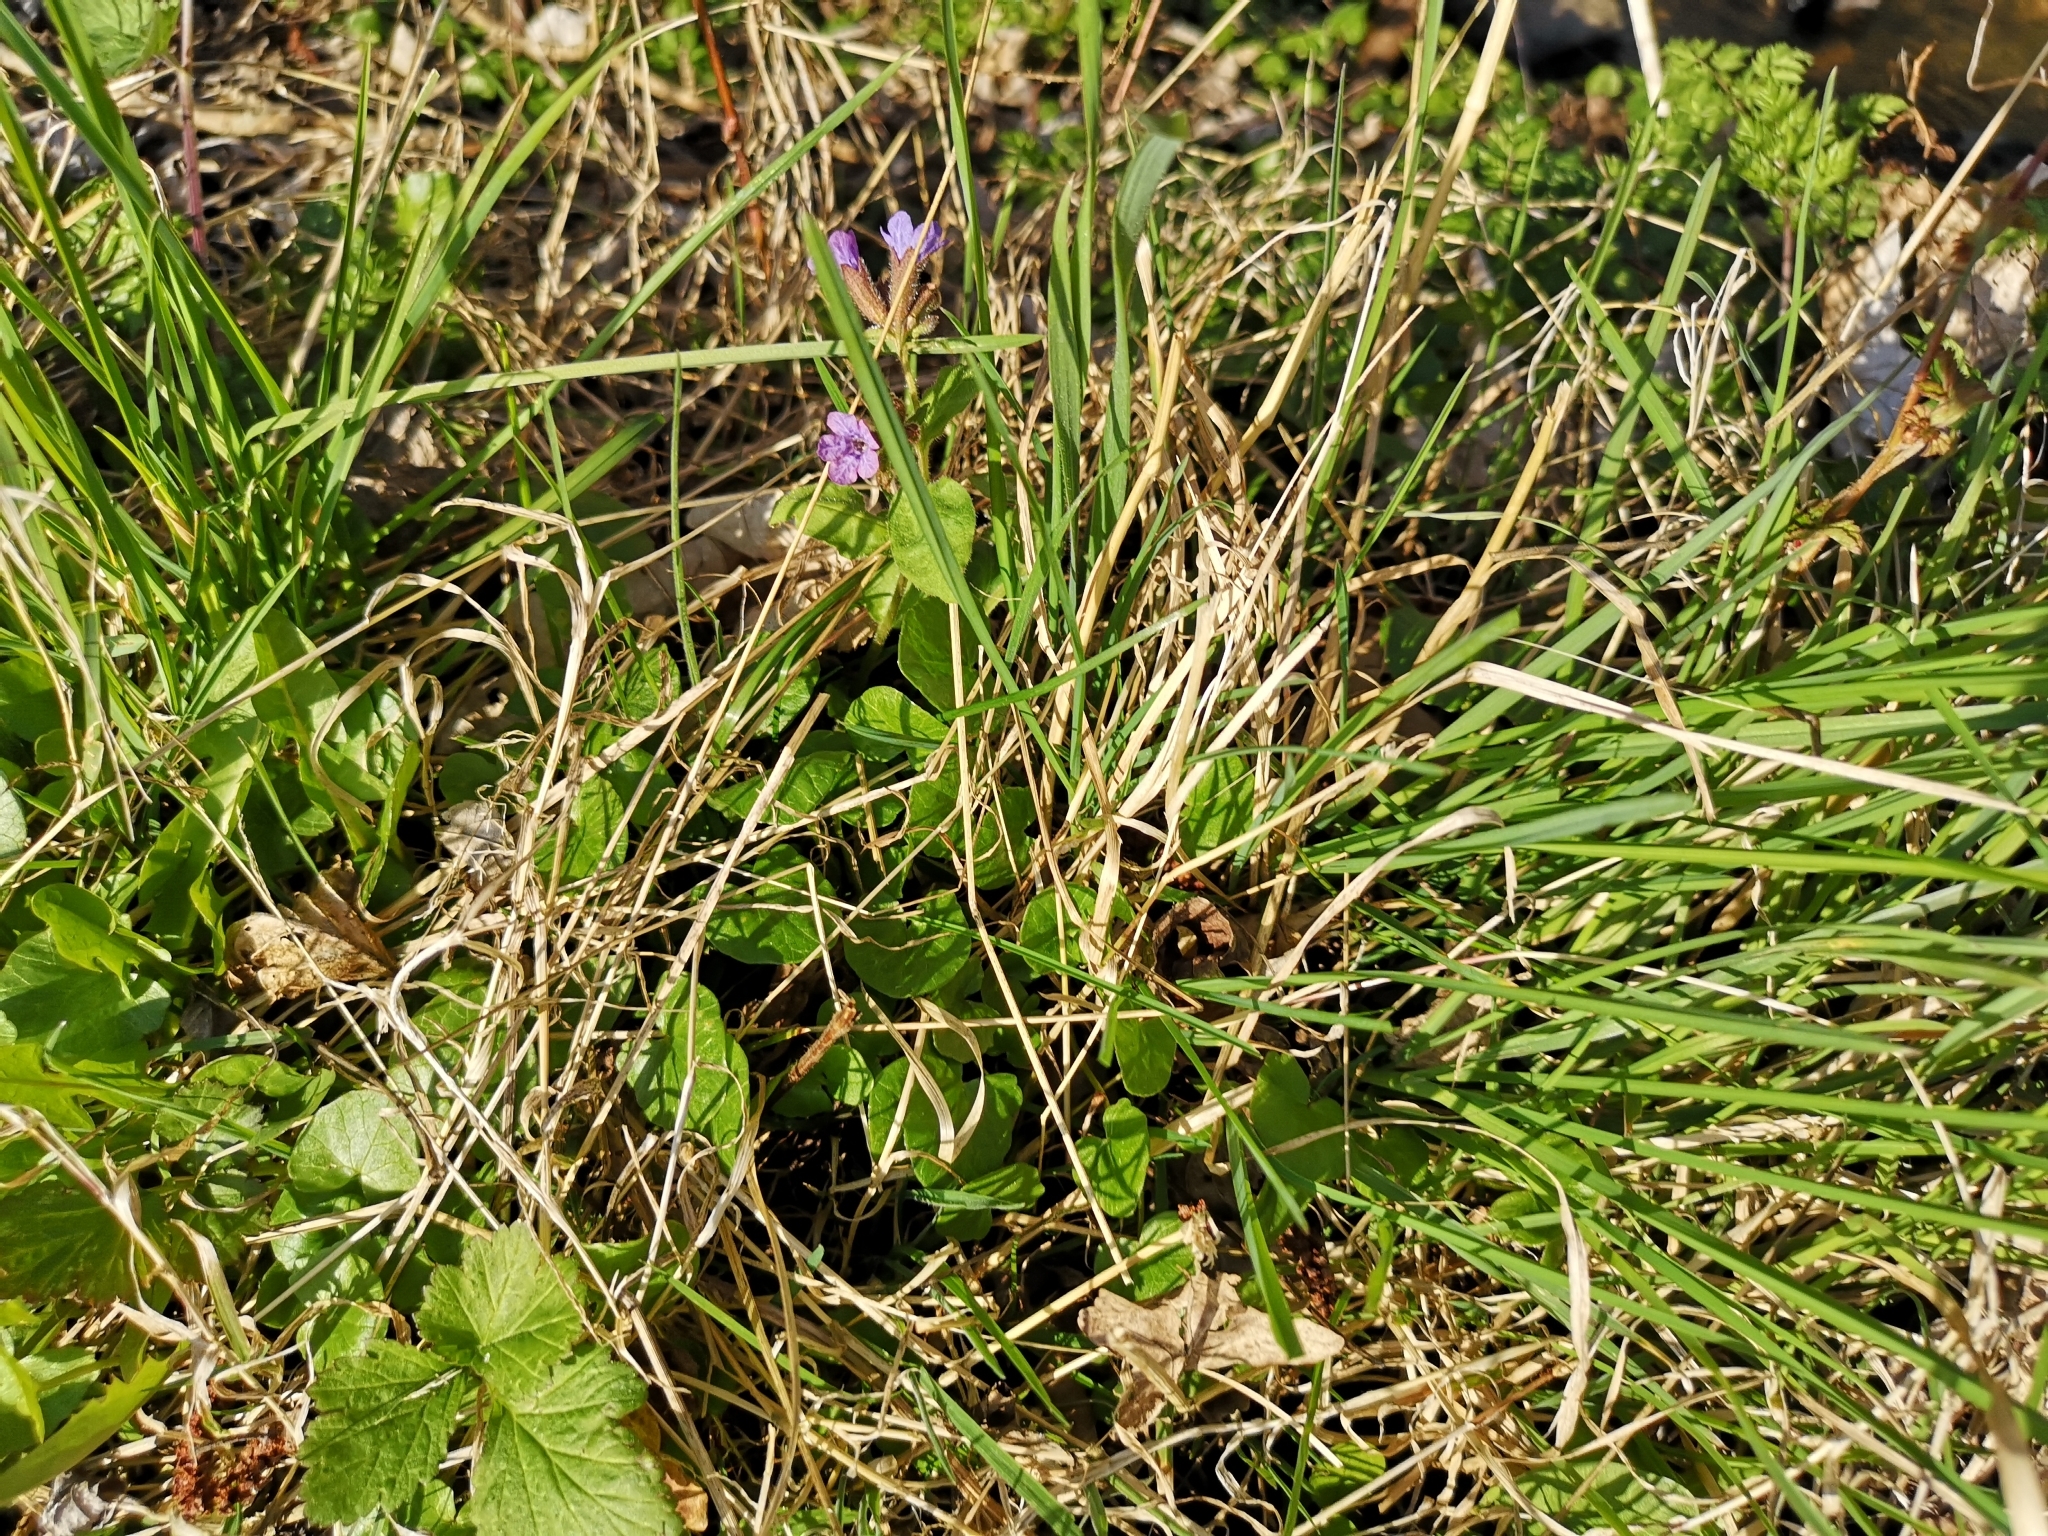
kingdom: Plantae
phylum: Tracheophyta
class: Magnoliopsida
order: Boraginales
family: Boraginaceae
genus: Pulmonaria
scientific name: Pulmonaria obscura
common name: Suffolk lungwort
